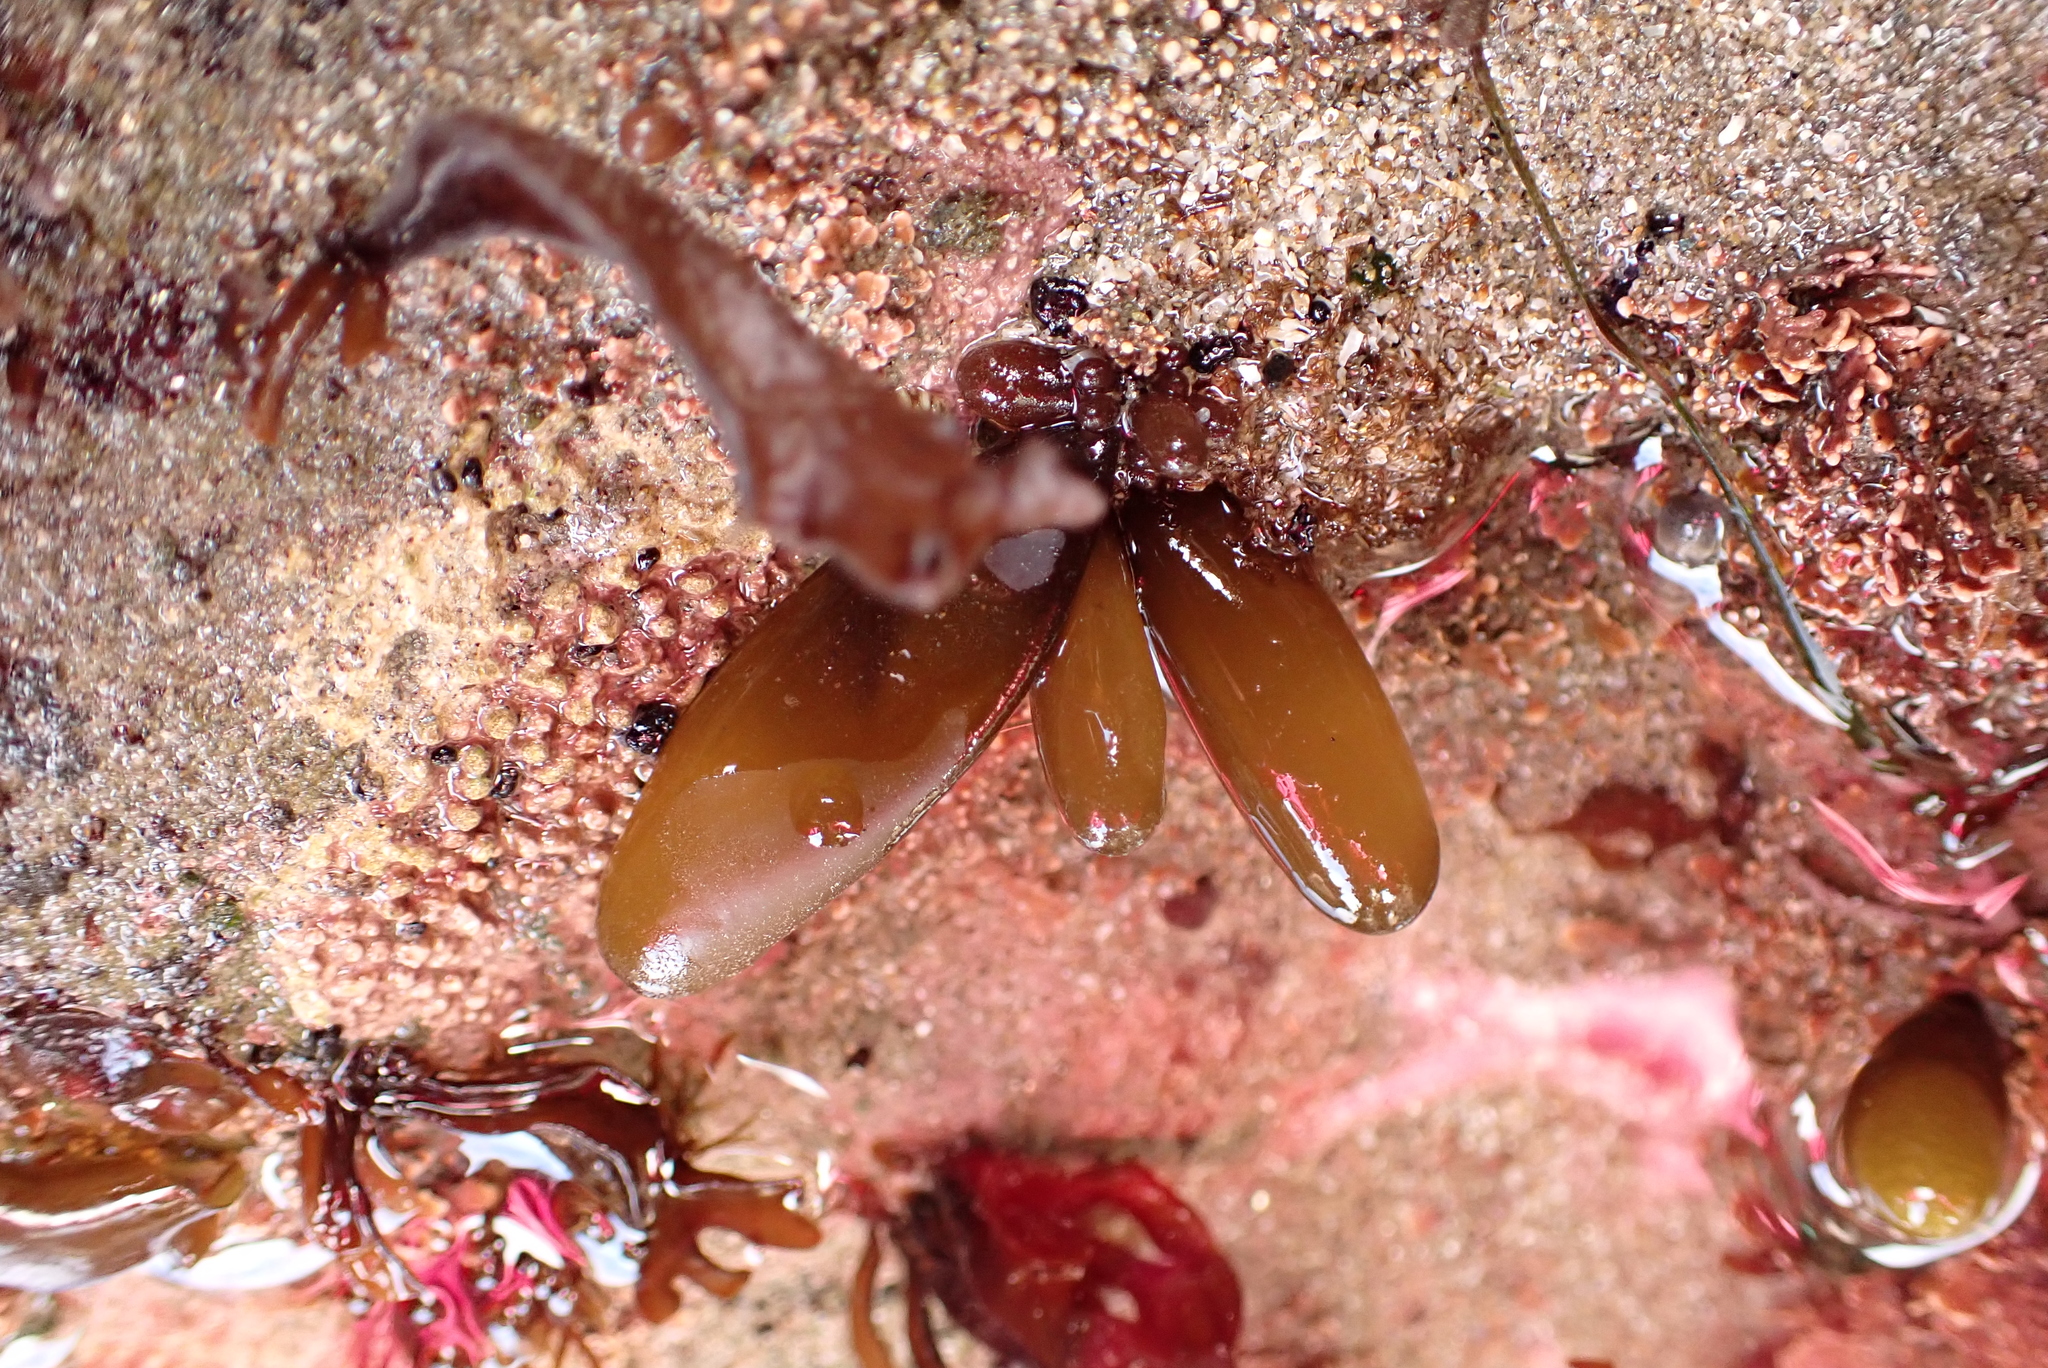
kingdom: Plantae
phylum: Rhodophyta
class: Florideophyceae
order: Palmariales
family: Palmariaceae
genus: Halosaccion
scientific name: Halosaccion glandiforme
